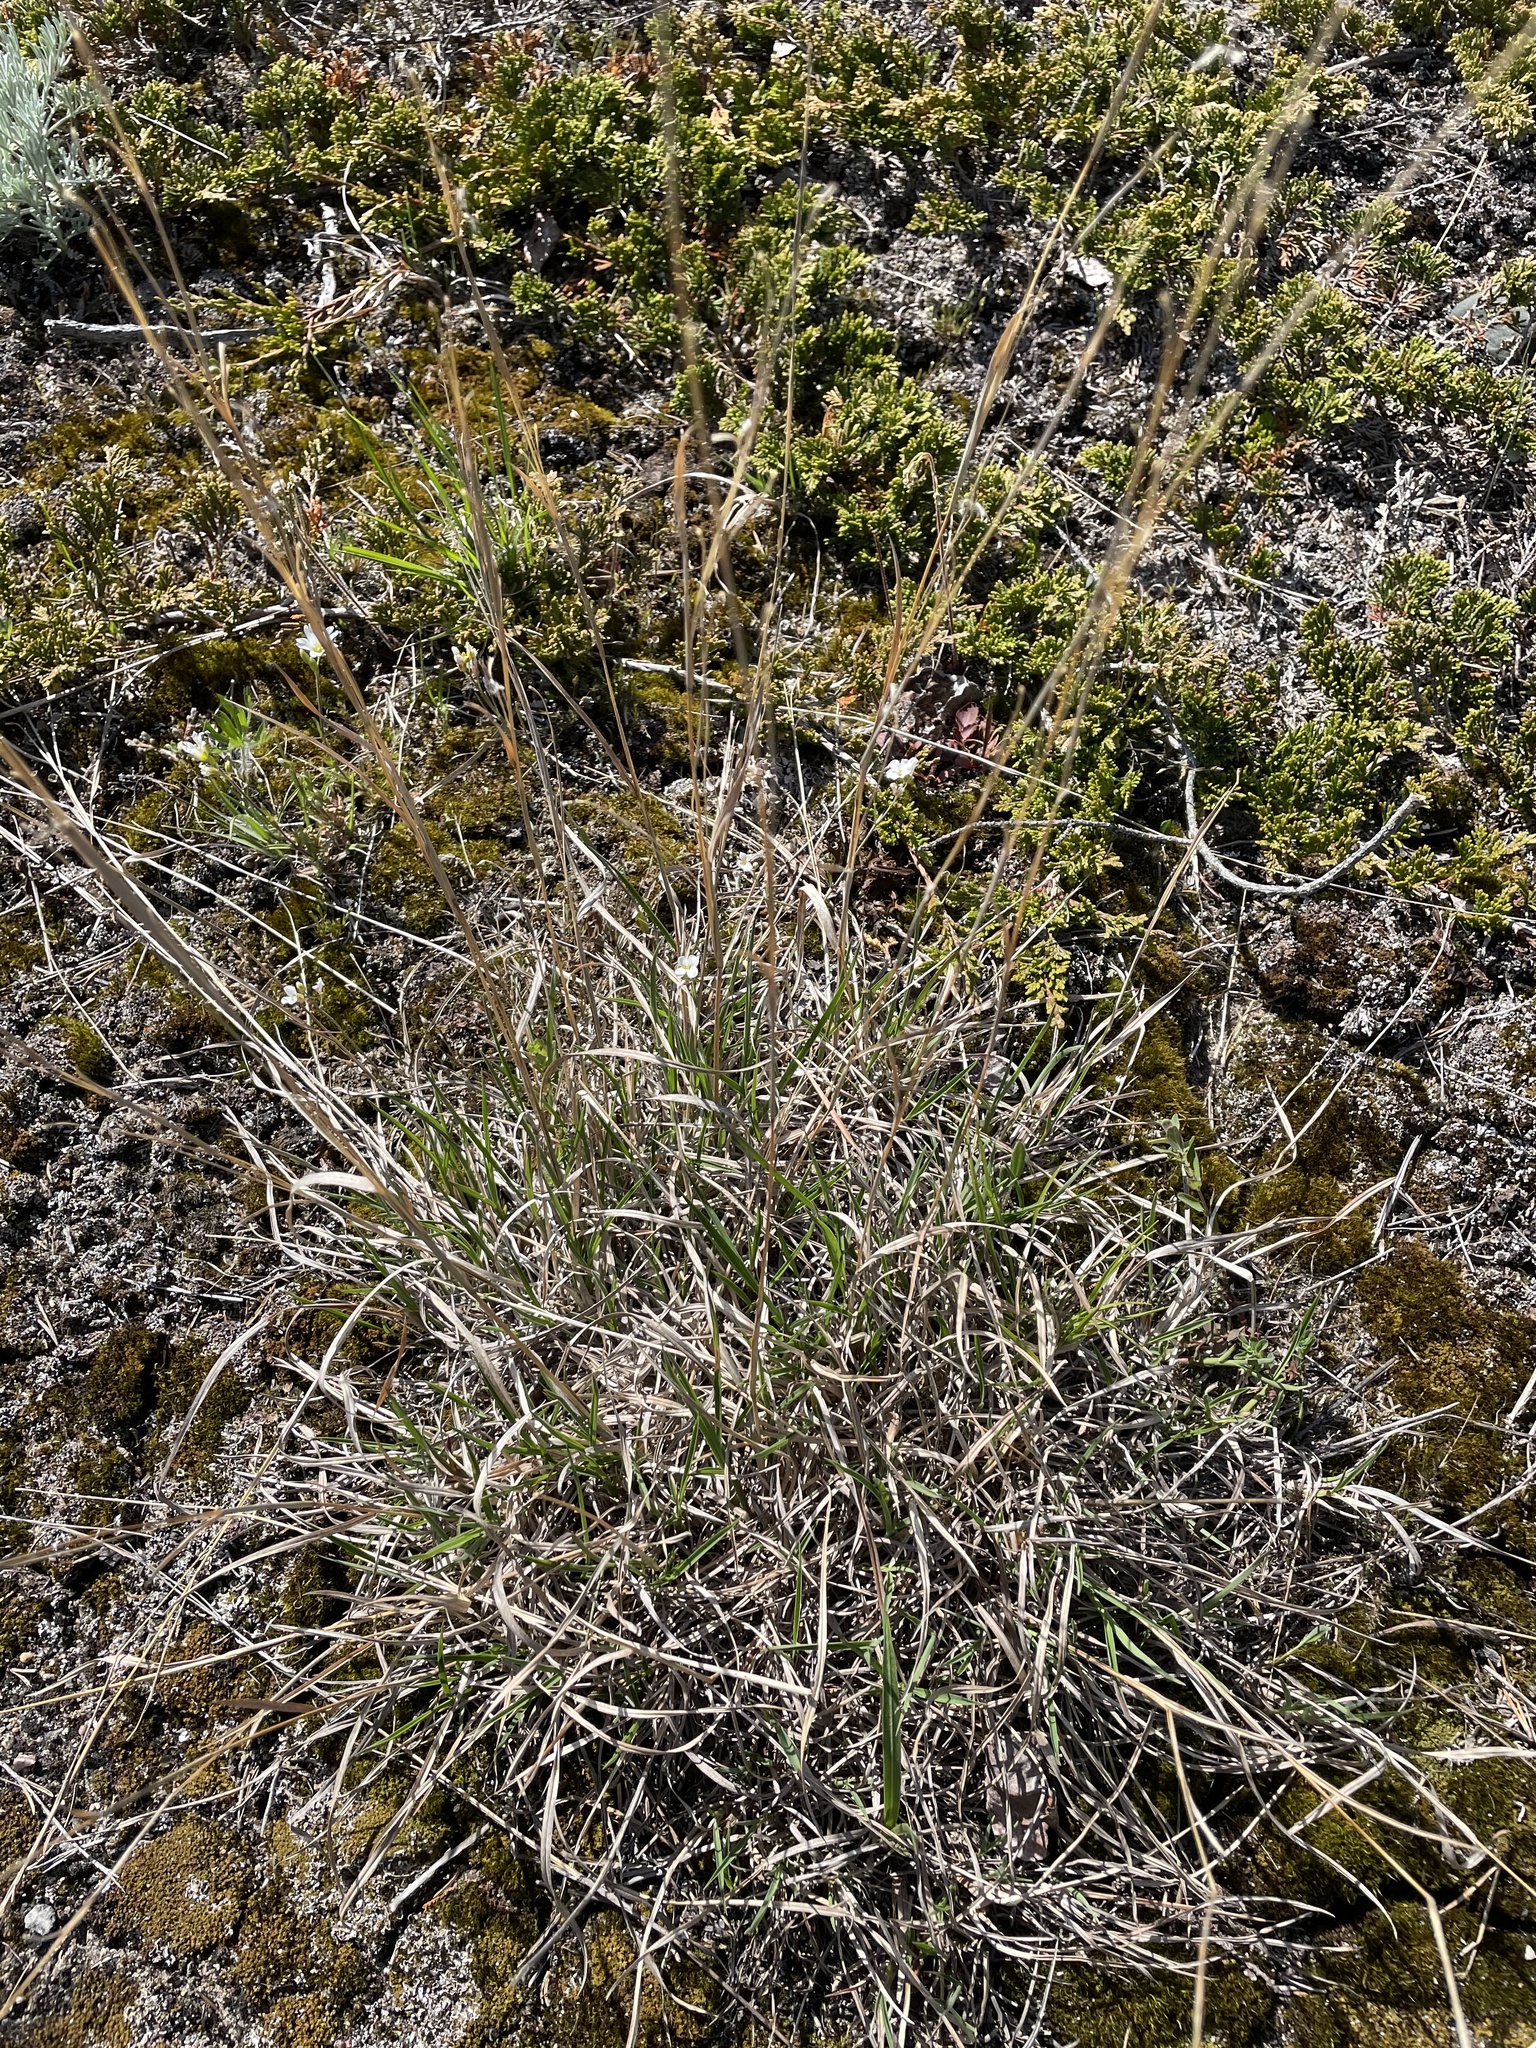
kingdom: Plantae
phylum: Tracheophyta
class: Liliopsida
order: Poales
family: Poaceae
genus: Schizachyrium
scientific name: Schizachyrium scoparium
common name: Little bluestem
